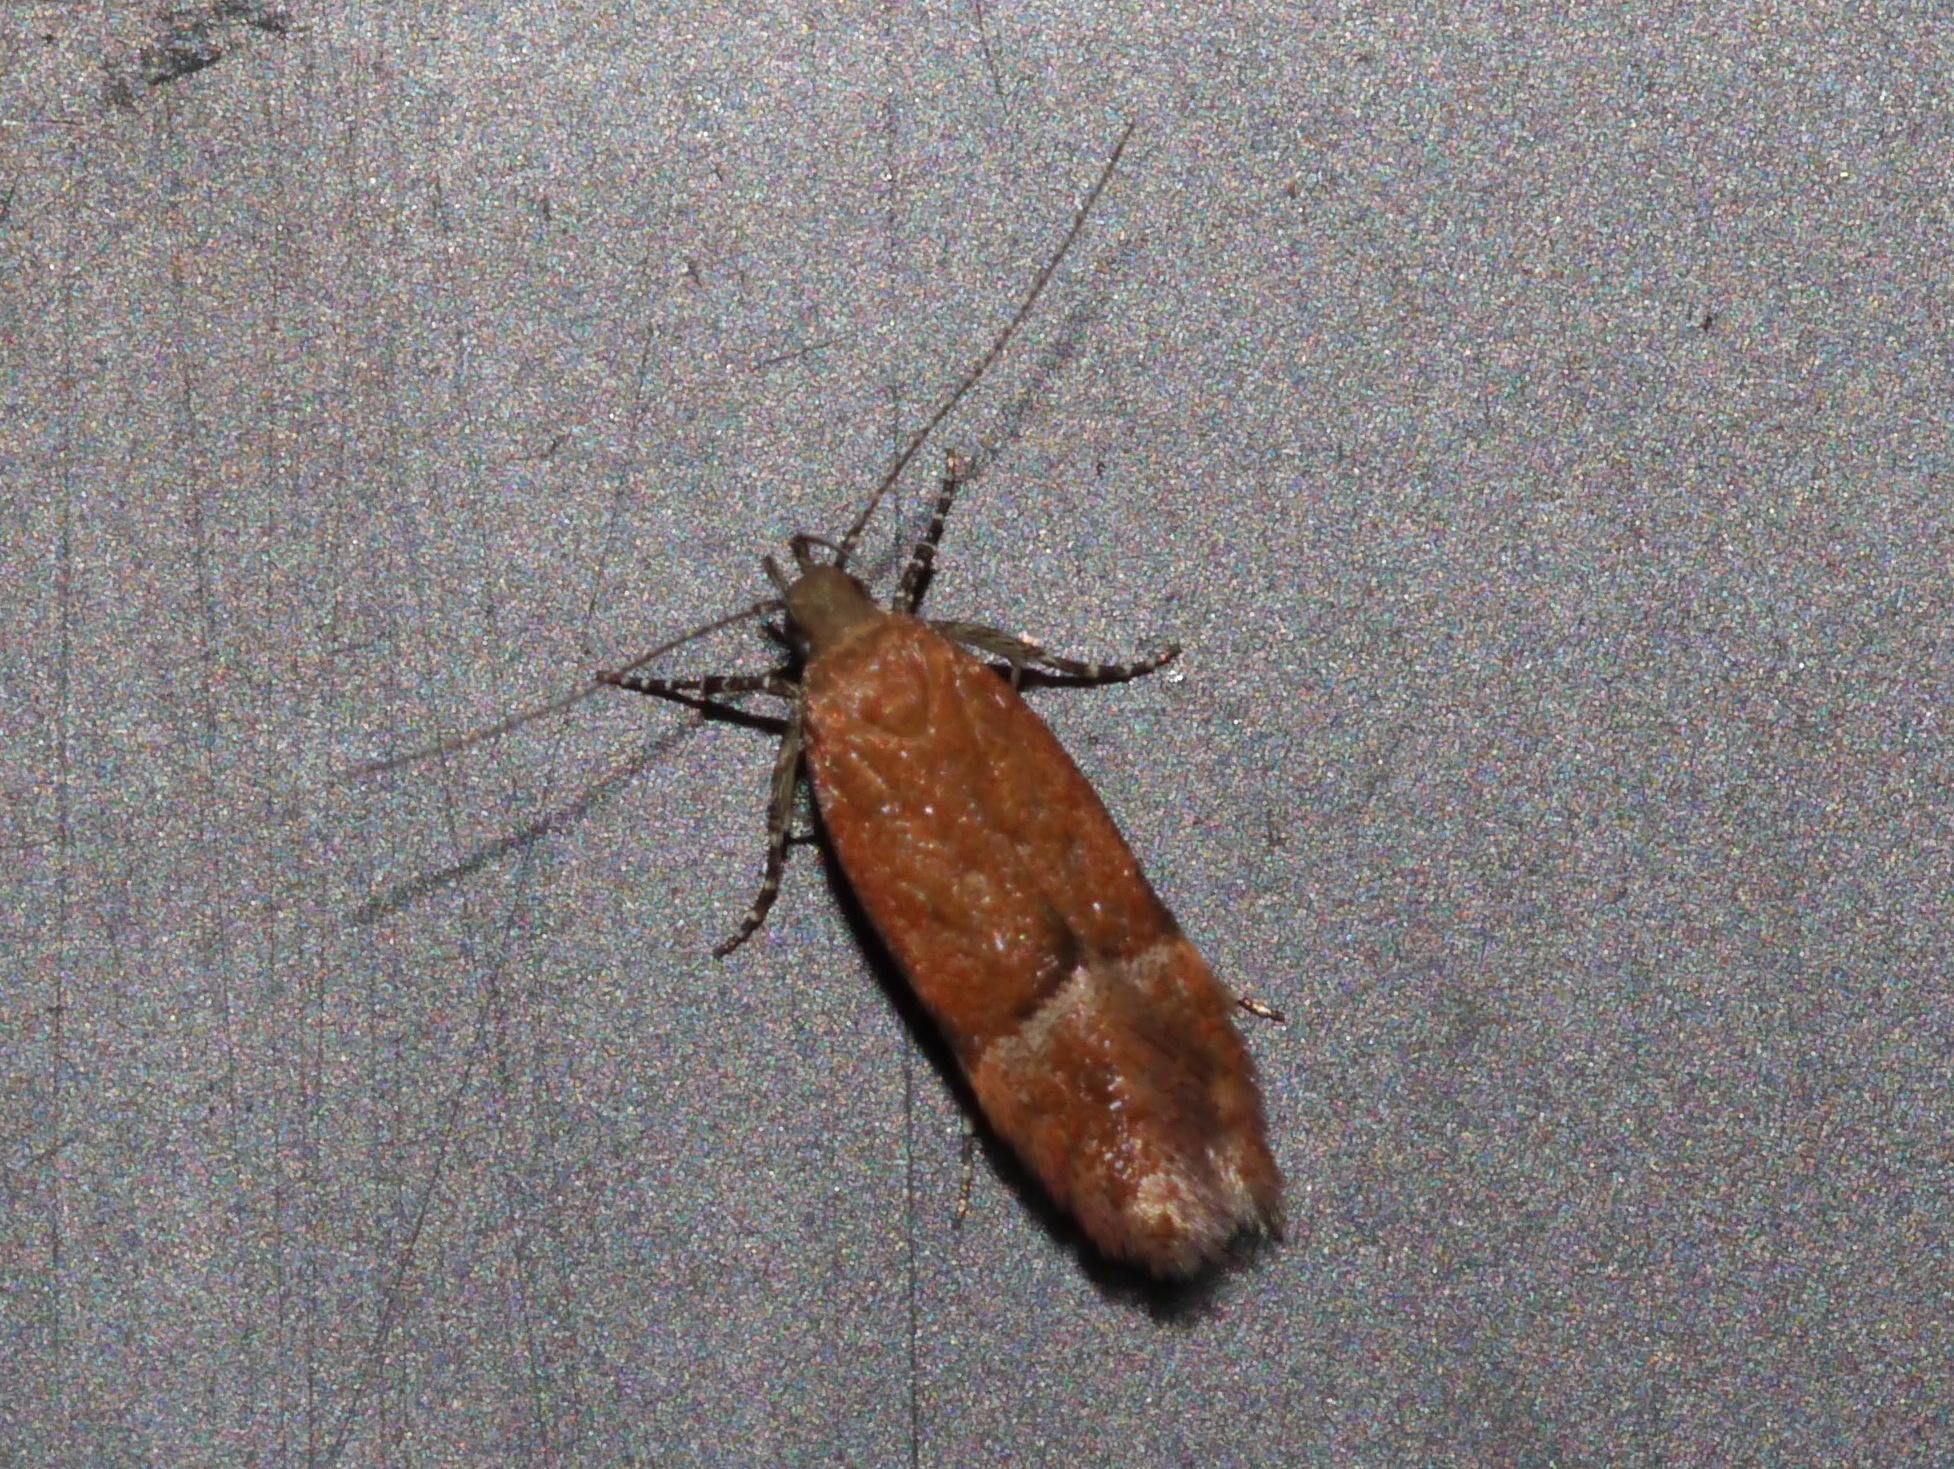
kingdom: Animalia
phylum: Arthropoda
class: Insecta
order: Lepidoptera
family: Gelechiidae
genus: Eudactylota
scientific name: Eudactylota iobapta
